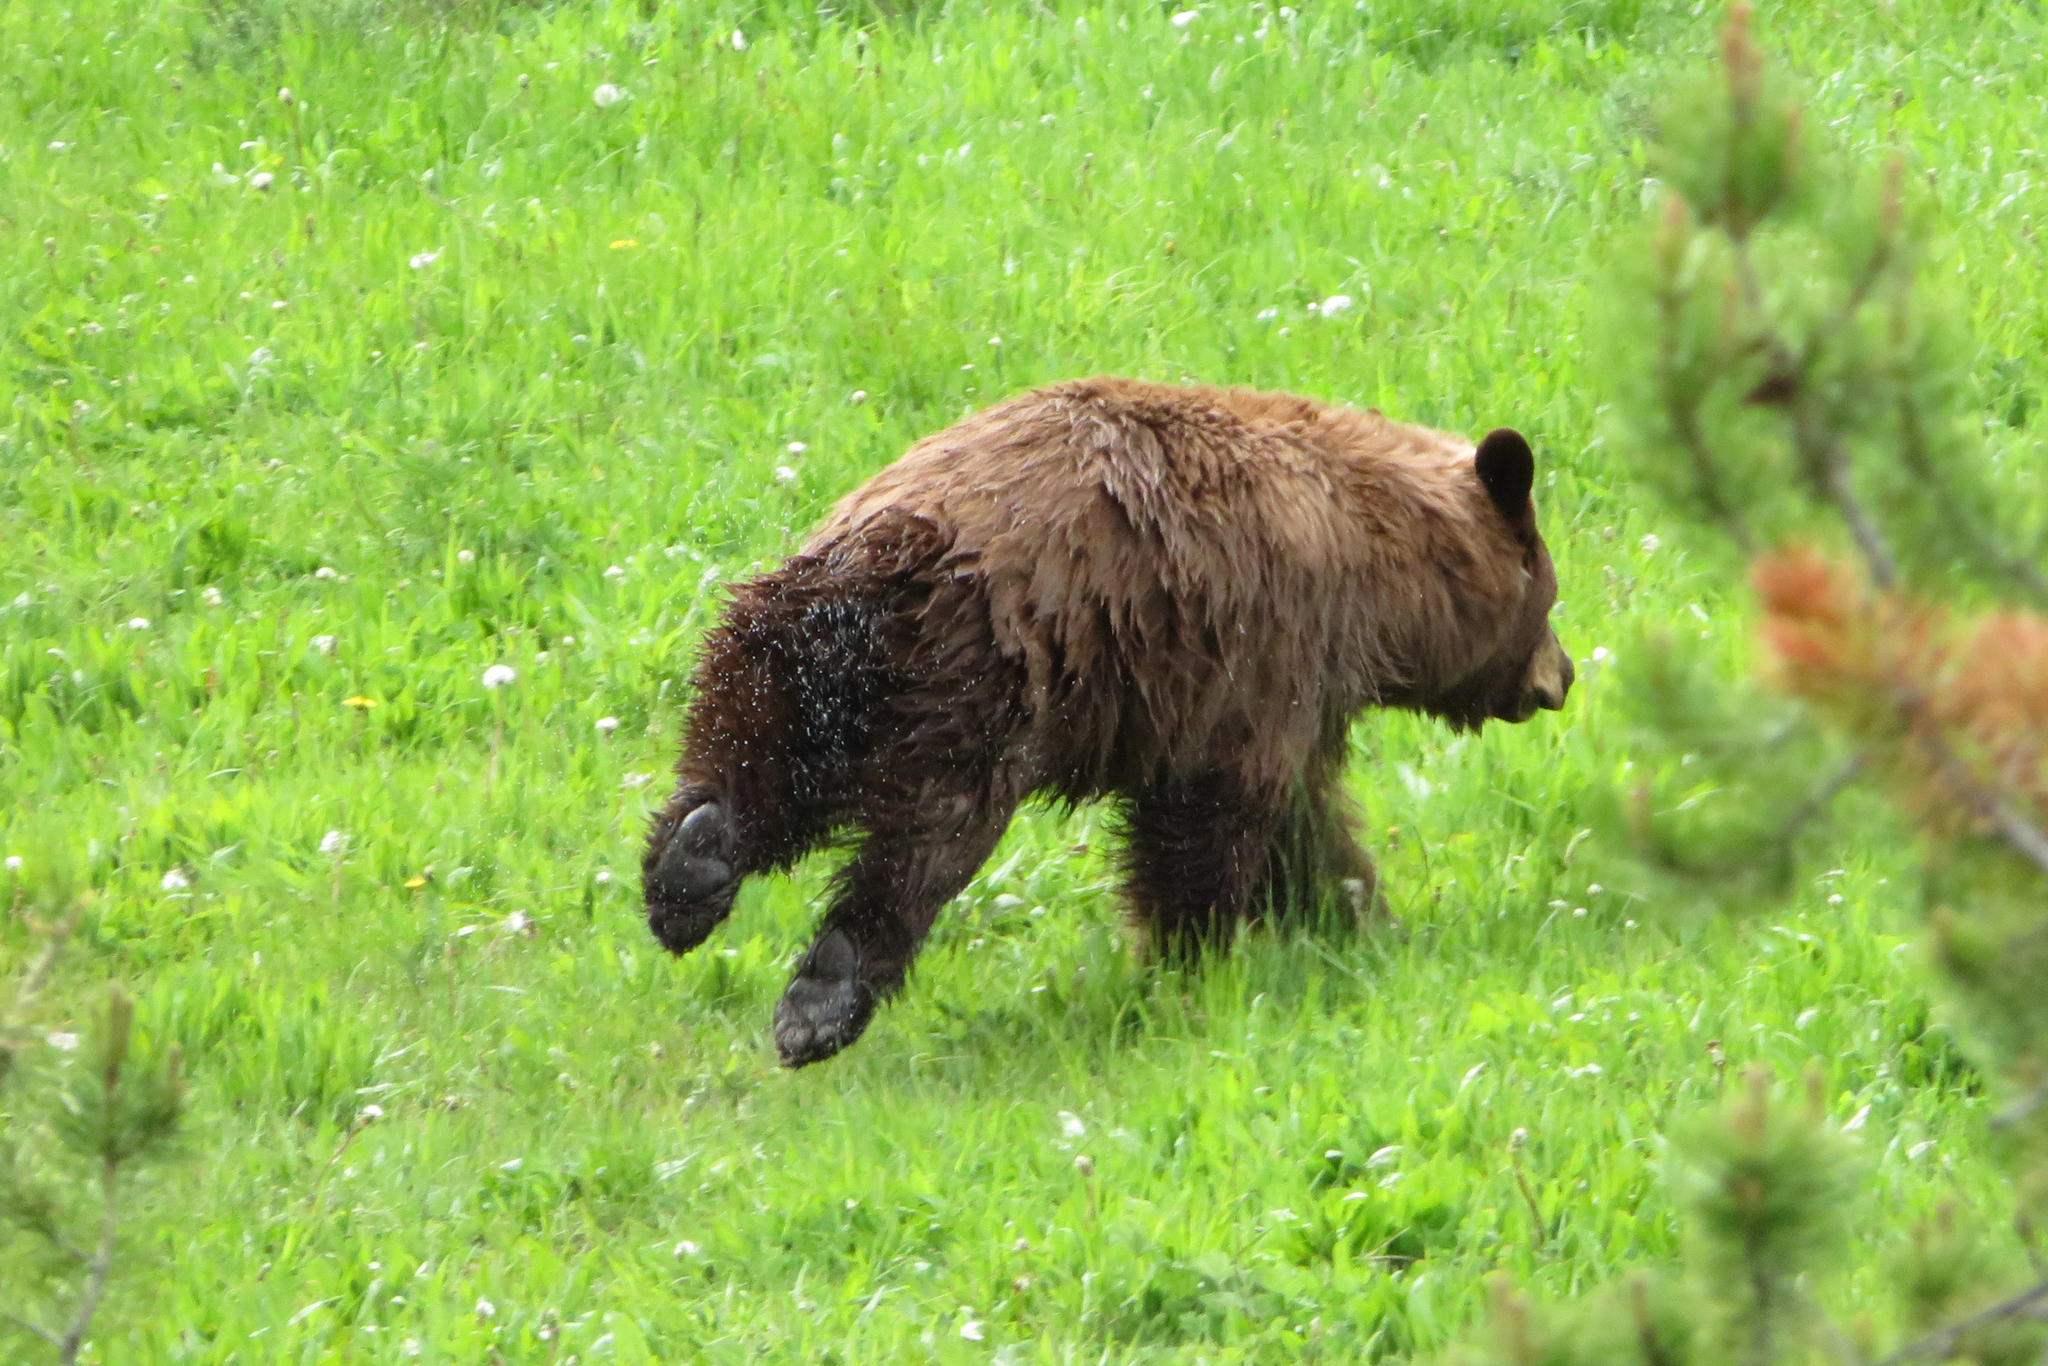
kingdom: Animalia
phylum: Chordata
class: Mammalia
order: Carnivora
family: Ursidae
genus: Ursus
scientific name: Ursus americanus
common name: American black bear
